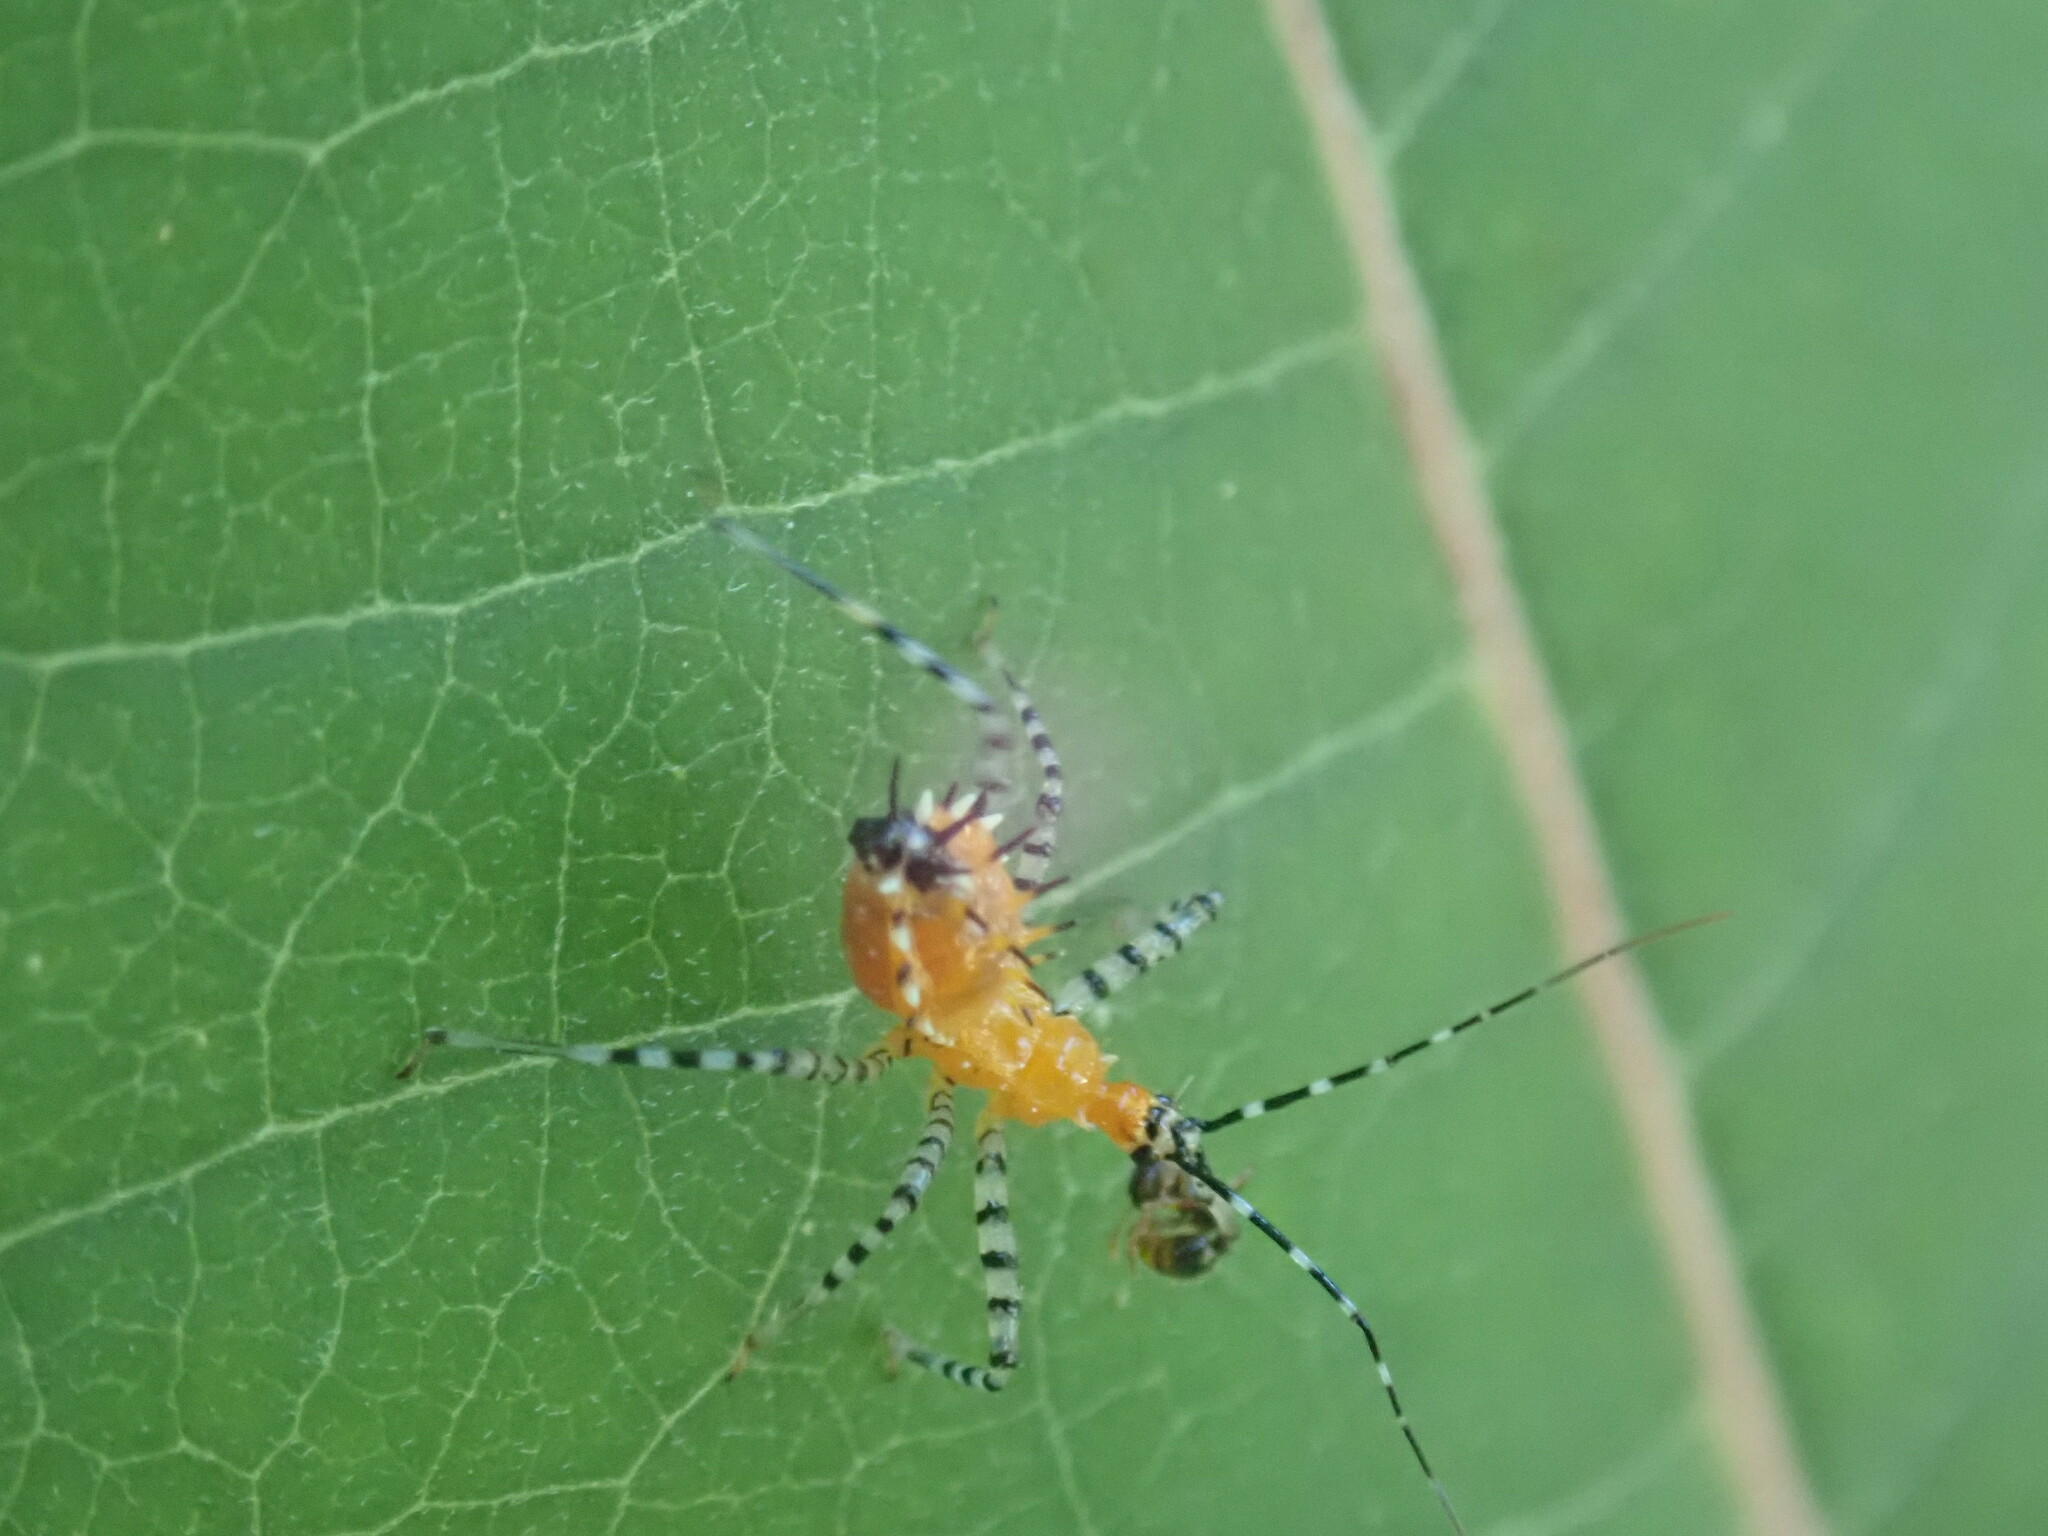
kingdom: Animalia
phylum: Arthropoda
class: Insecta
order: Hemiptera
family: Reduviidae
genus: Pselliopus
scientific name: Pselliopus cinctus
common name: Ringed assassin bug
